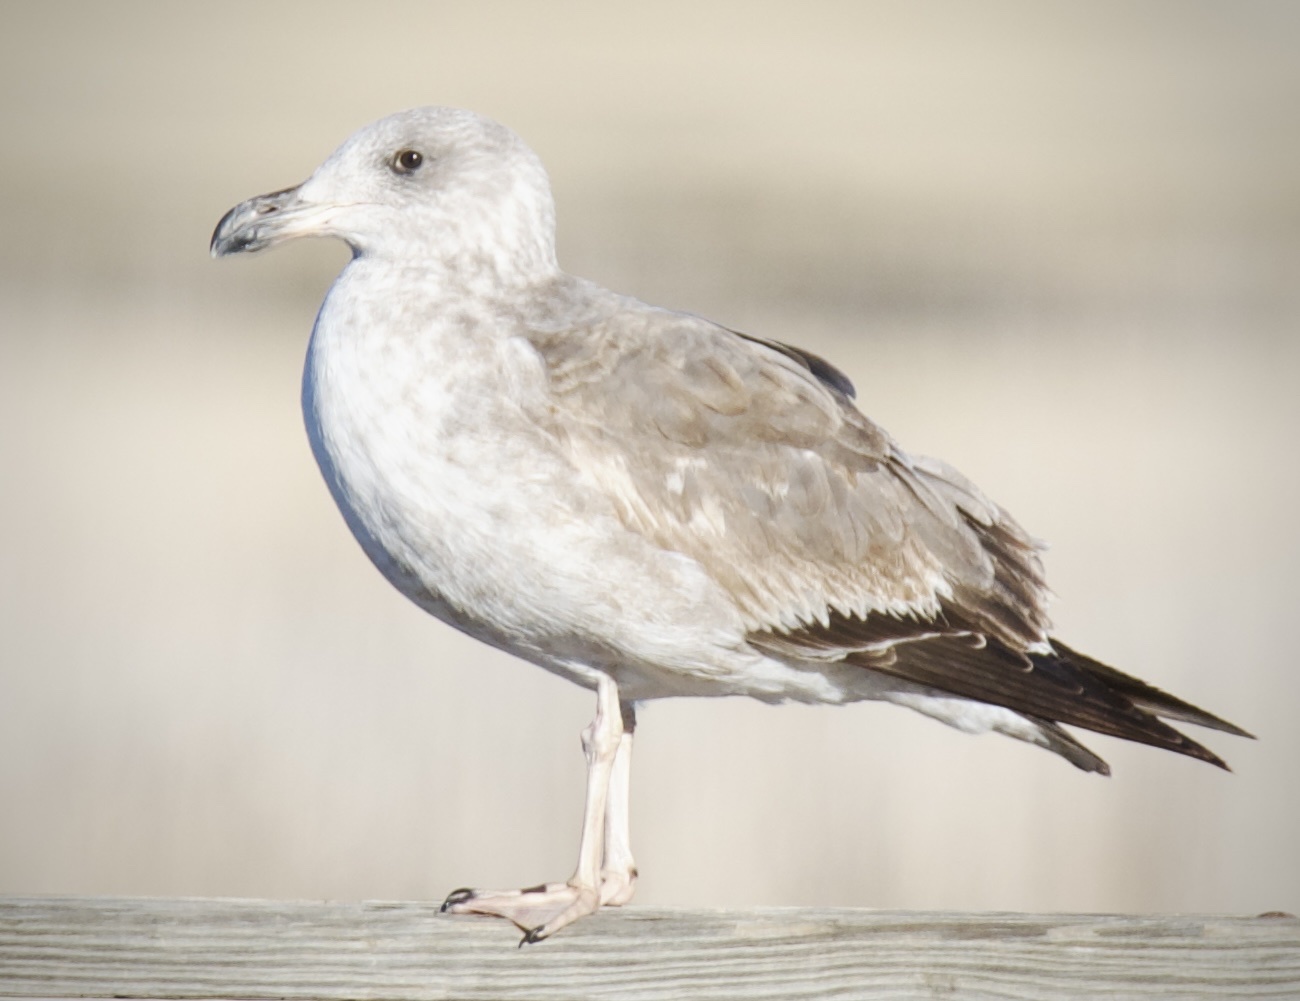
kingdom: Animalia
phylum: Chordata
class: Aves
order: Charadriiformes
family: Laridae
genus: Larus
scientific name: Larus livens
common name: Yellow-footed gull
